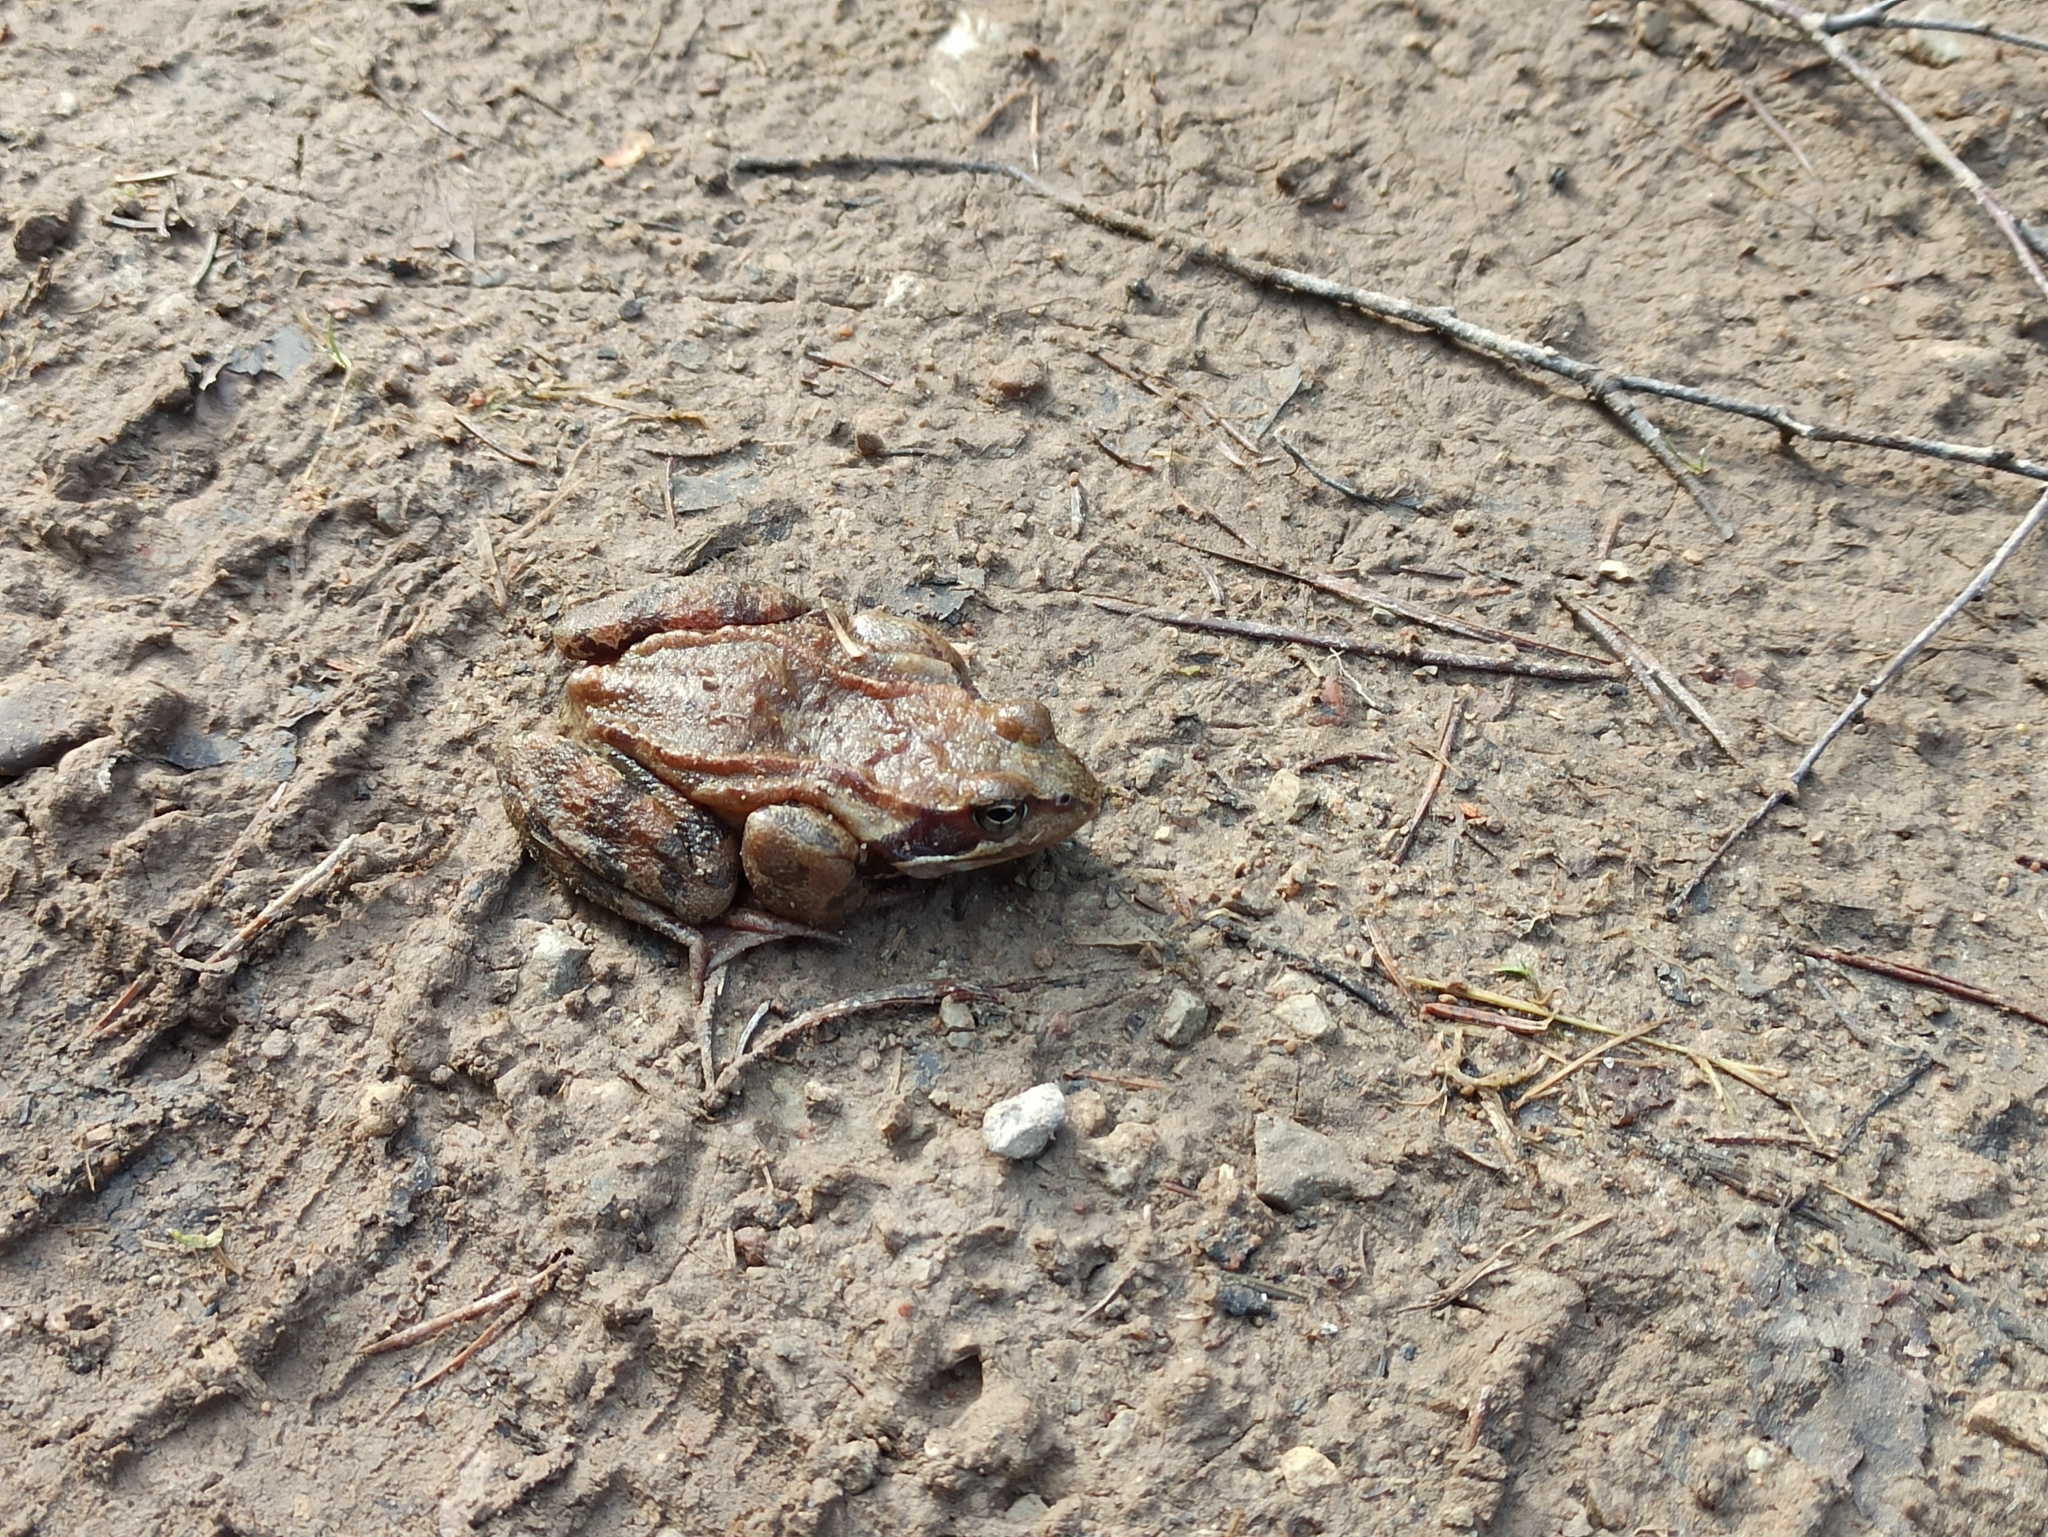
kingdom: Animalia
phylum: Chordata
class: Amphibia
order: Anura
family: Ranidae
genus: Rana
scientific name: Rana temporaria
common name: Common frog
